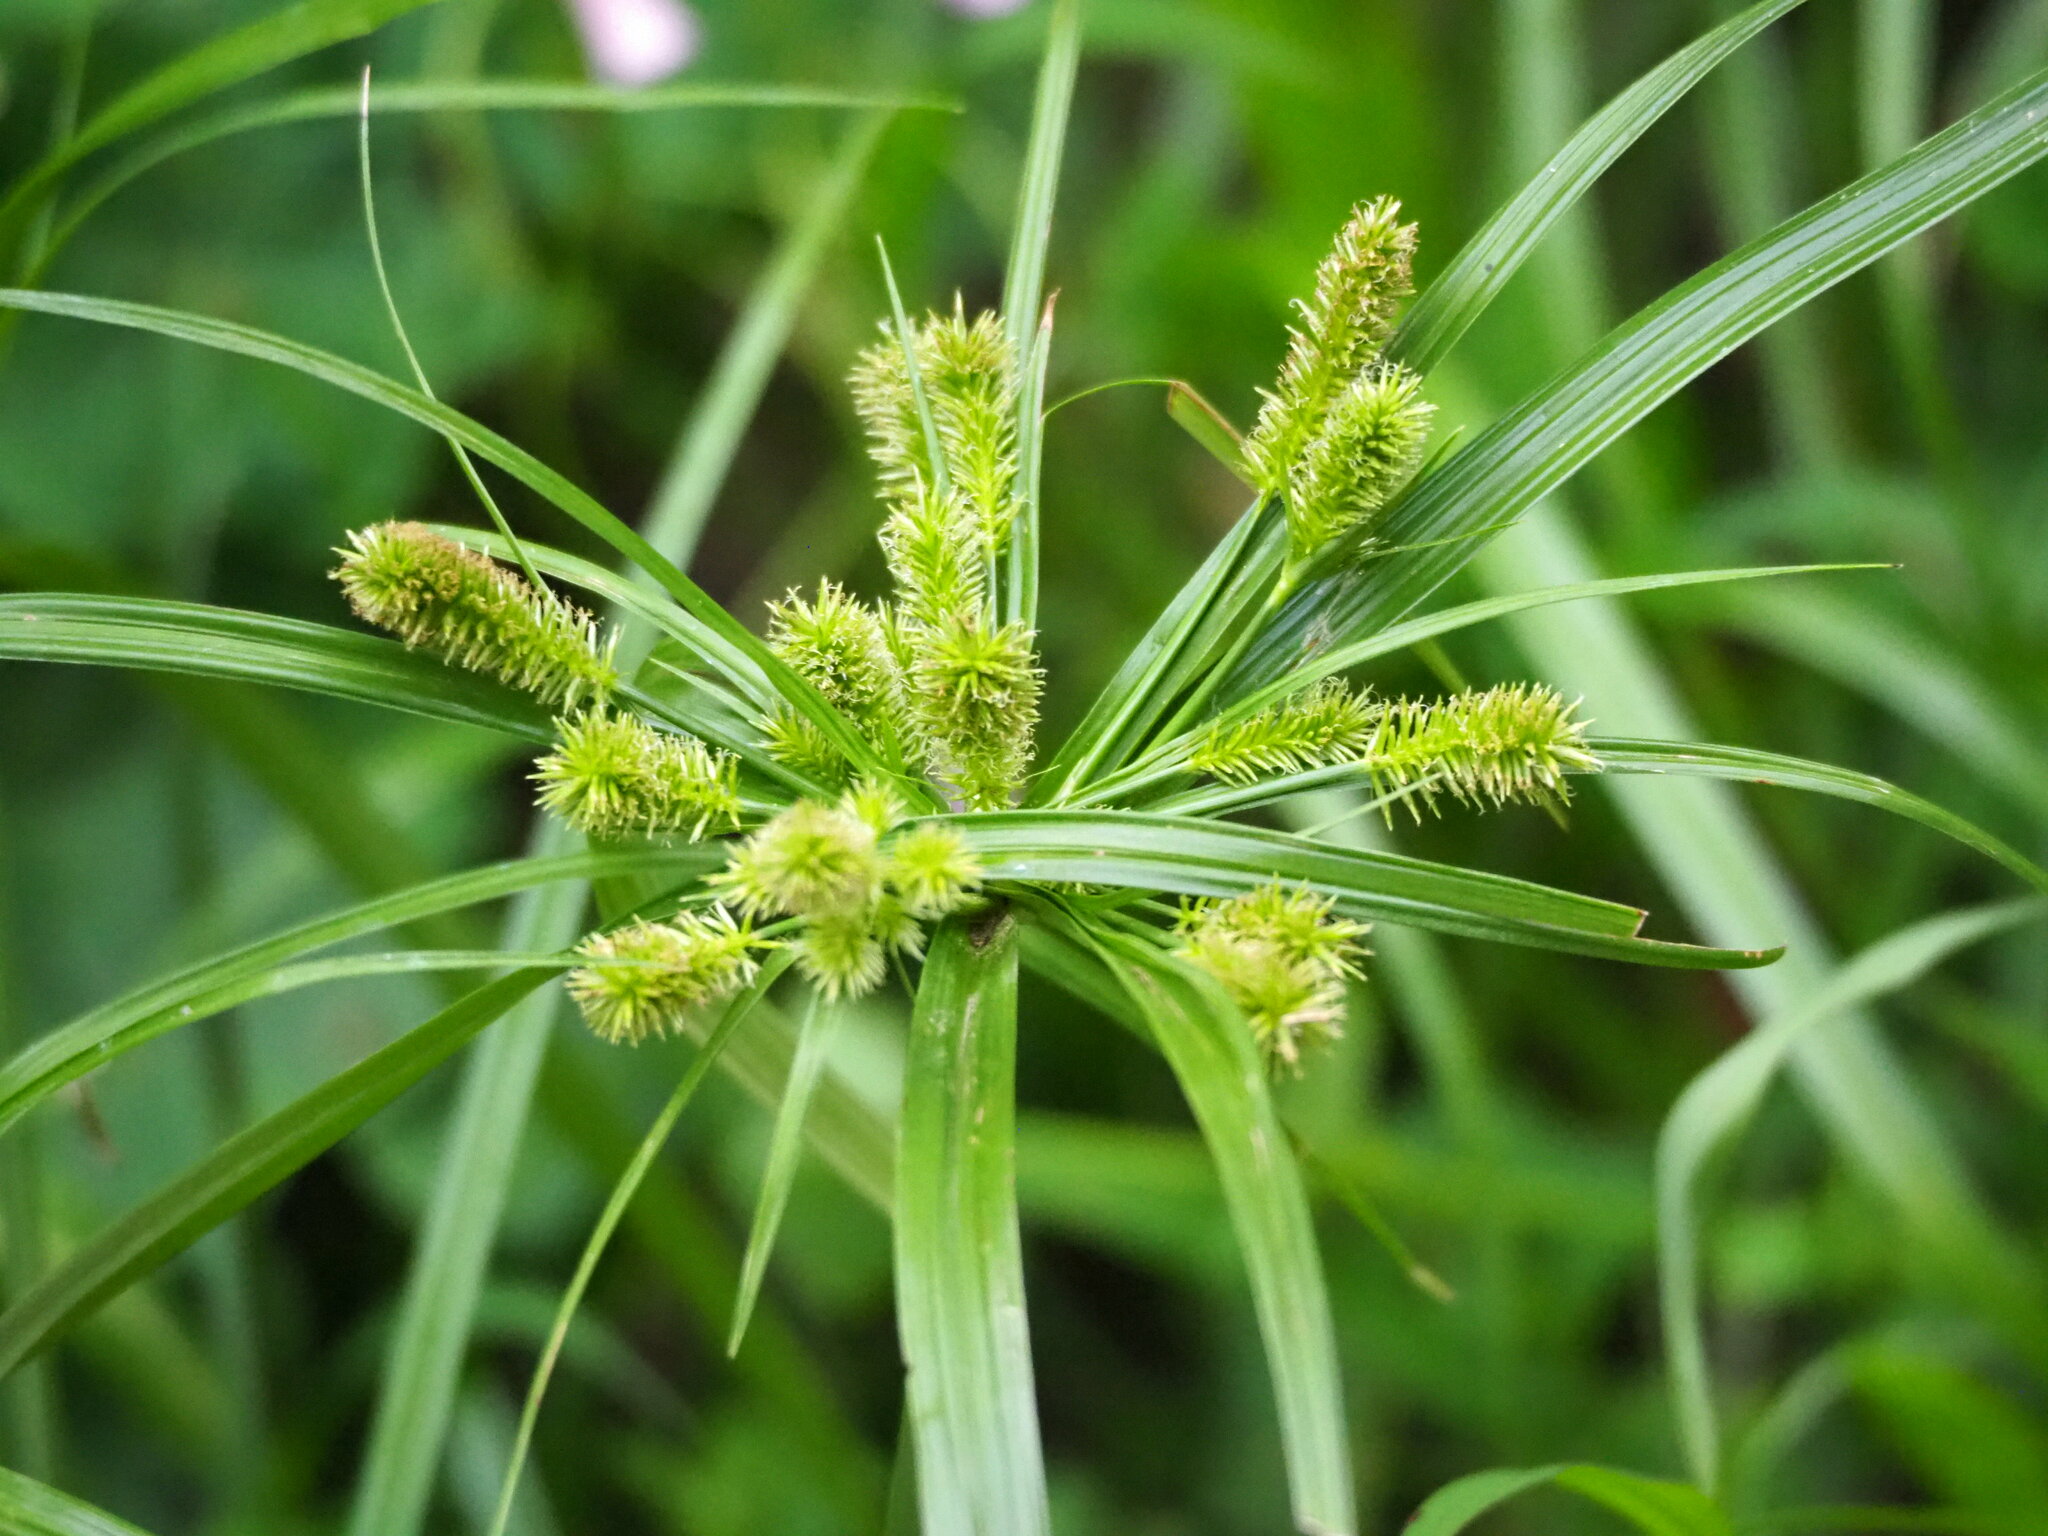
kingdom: Plantae
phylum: Tracheophyta
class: Liliopsida
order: Poales
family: Cyperaceae
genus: Cyperus
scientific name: Cyperus cyperoides
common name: Pacific island flat sedge
